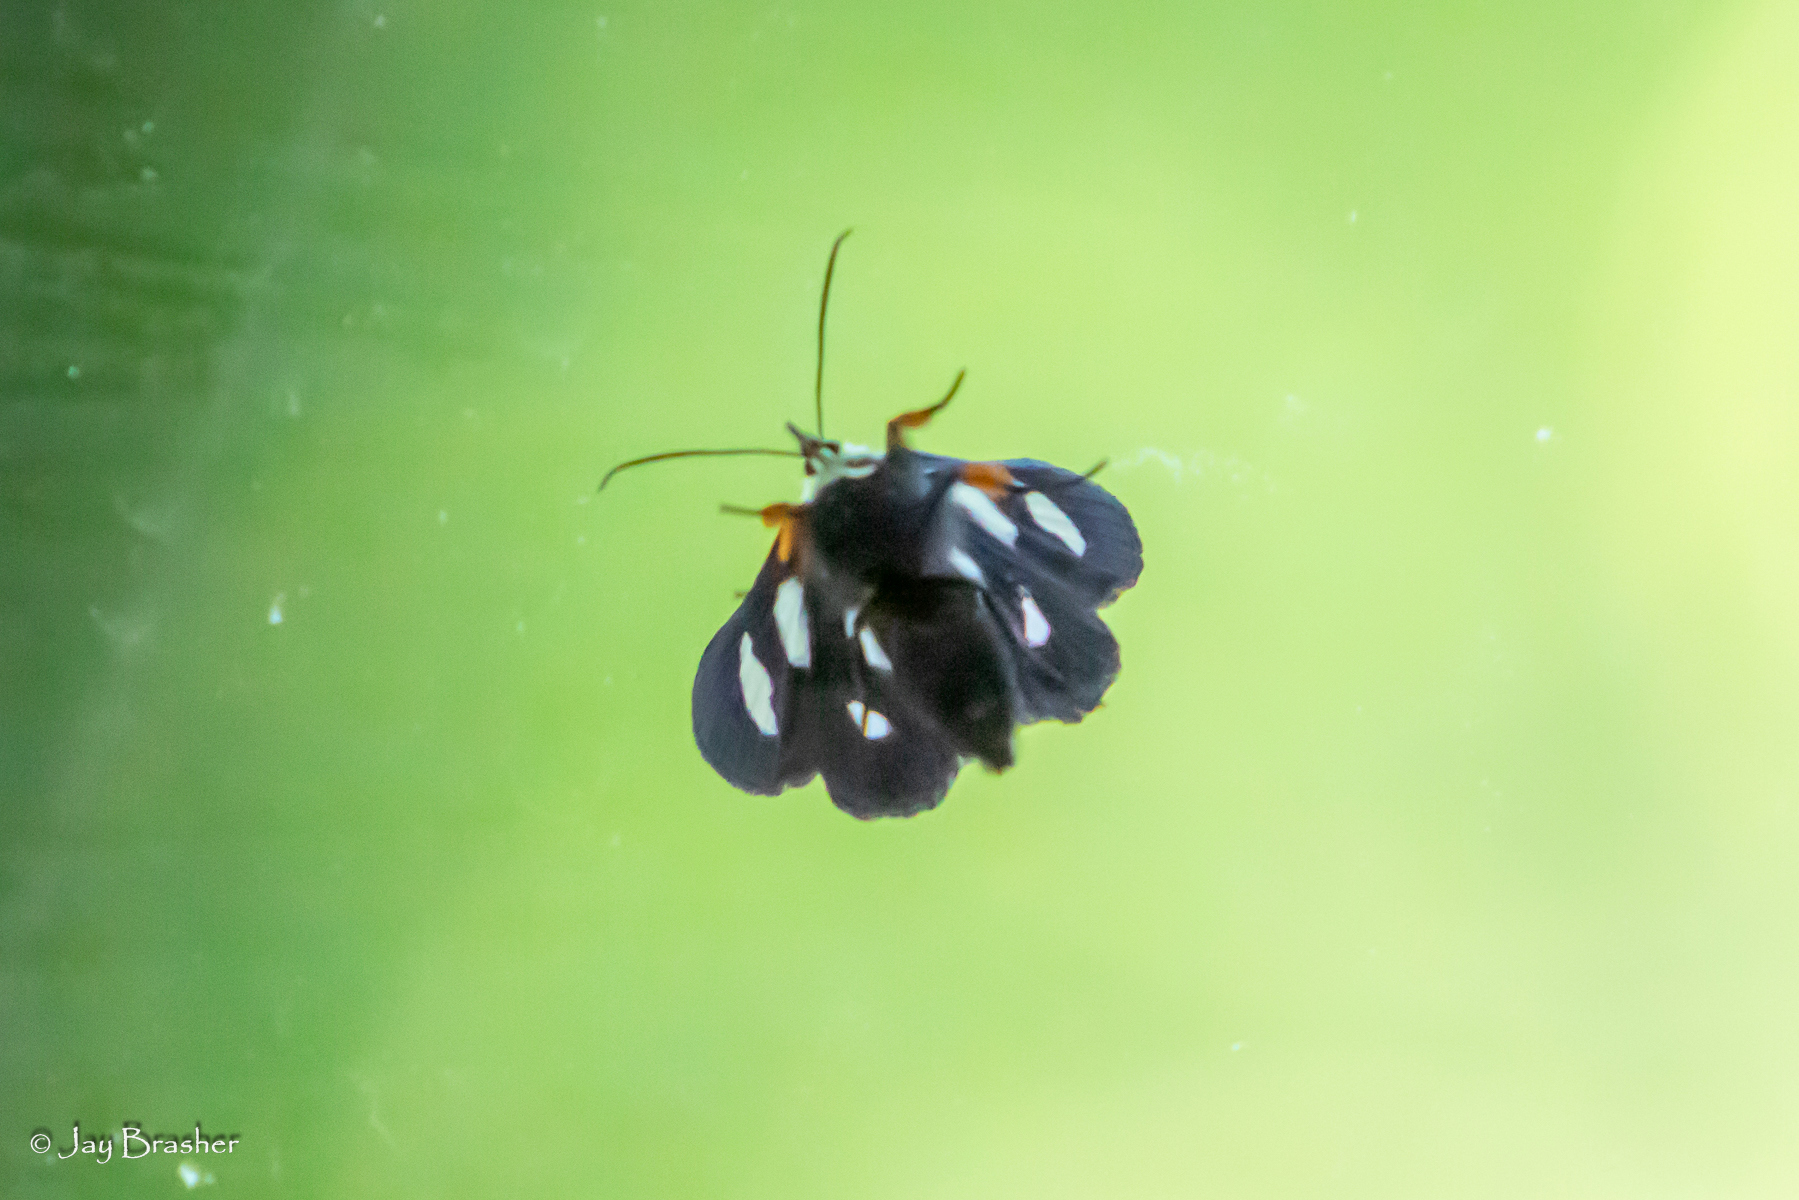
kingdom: Animalia
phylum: Arthropoda
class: Insecta
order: Lepidoptera
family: Noctuidae
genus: Alypia
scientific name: Alypia octomaculata
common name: Eight-spotted forester
